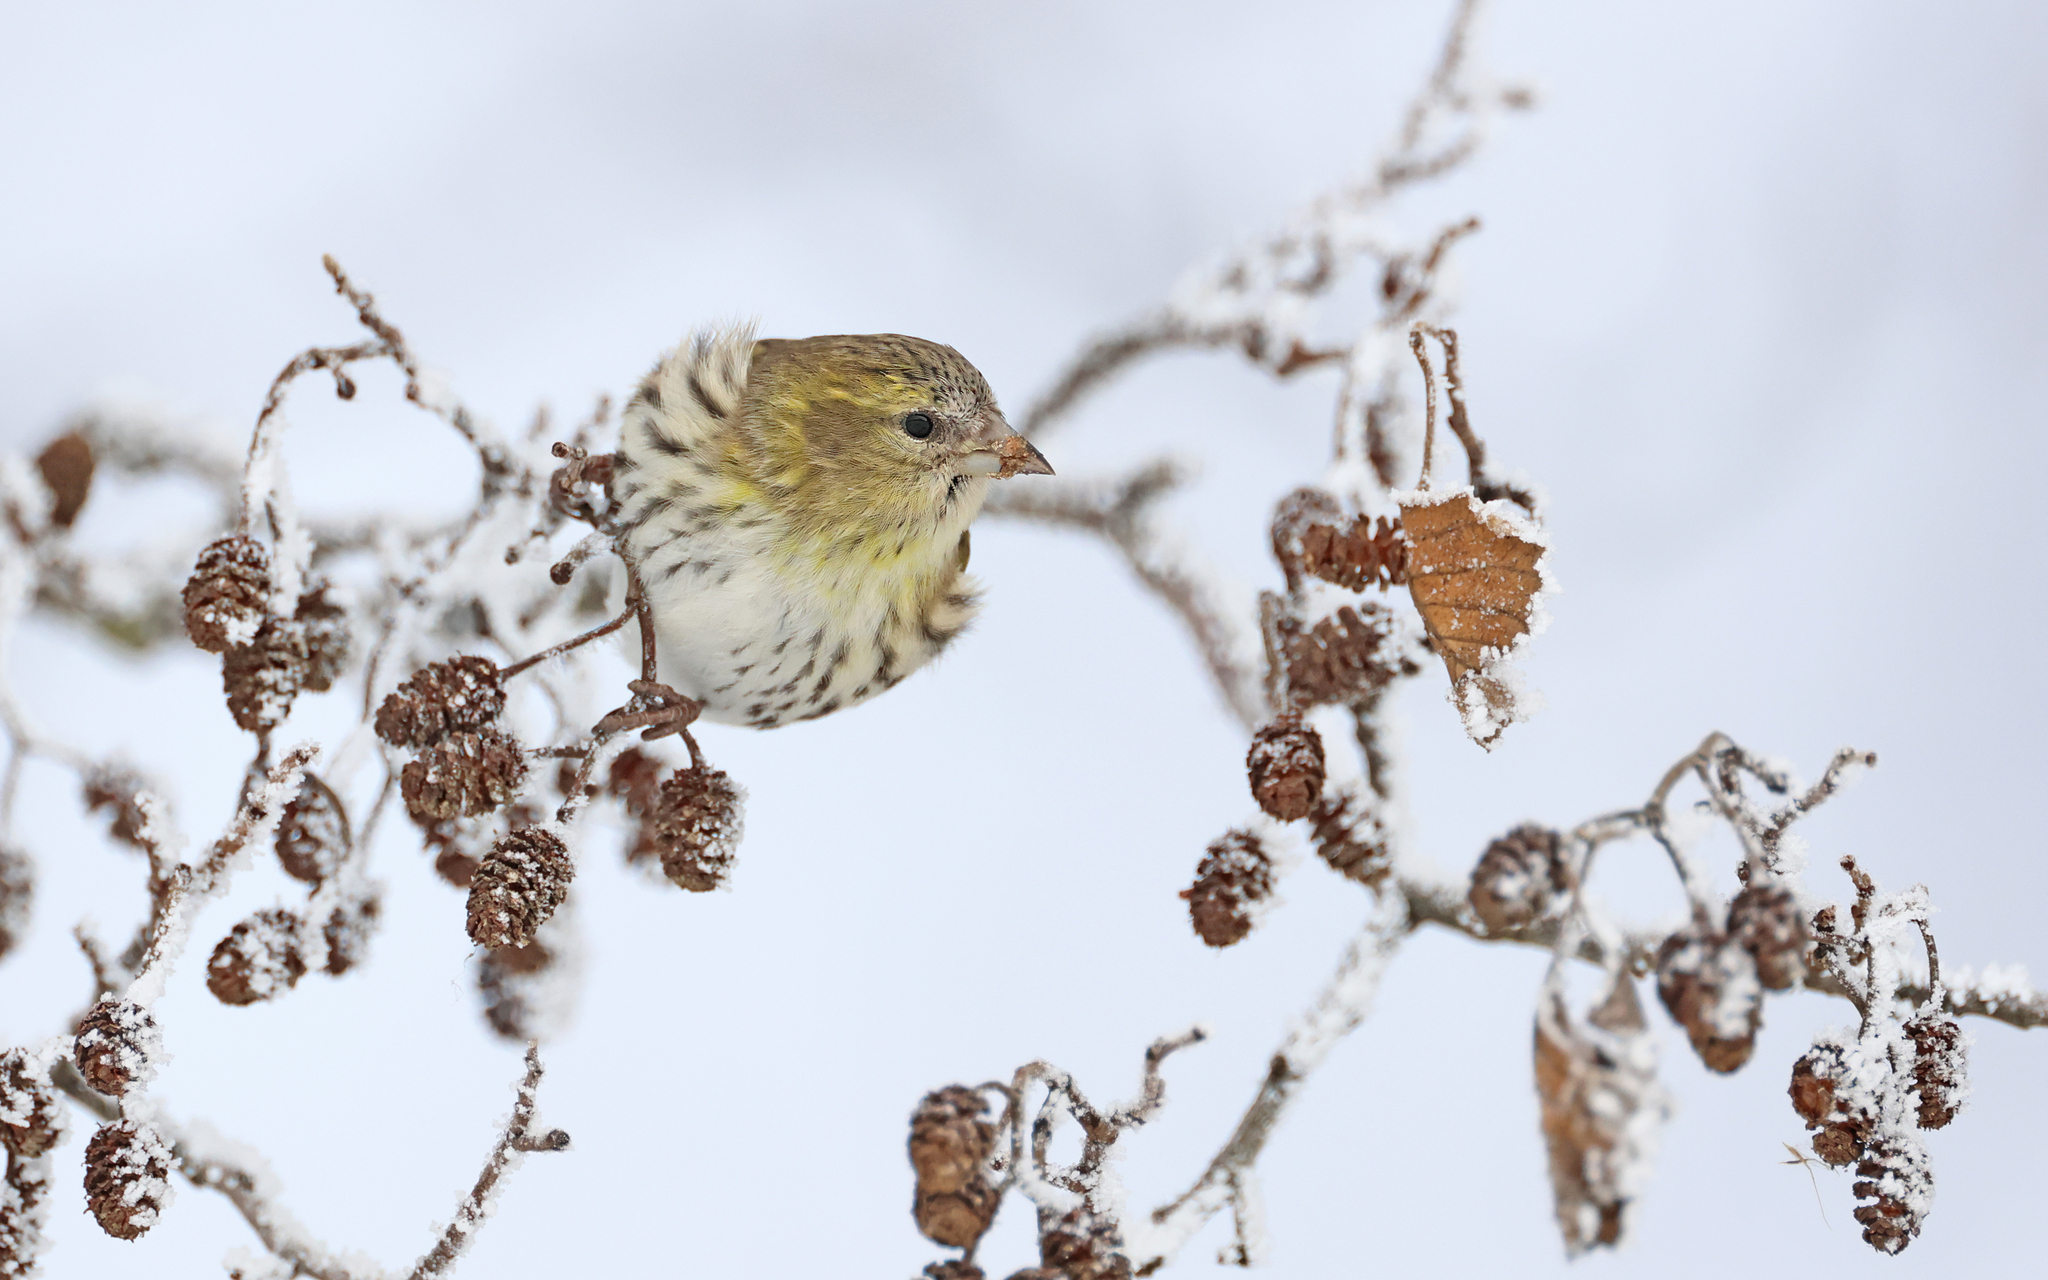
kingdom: Animalia
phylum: Chordata
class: Aves
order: Passeriformes
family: Fringillidae
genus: Spinus
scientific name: Spinus spinus
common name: Eurasian siskin
